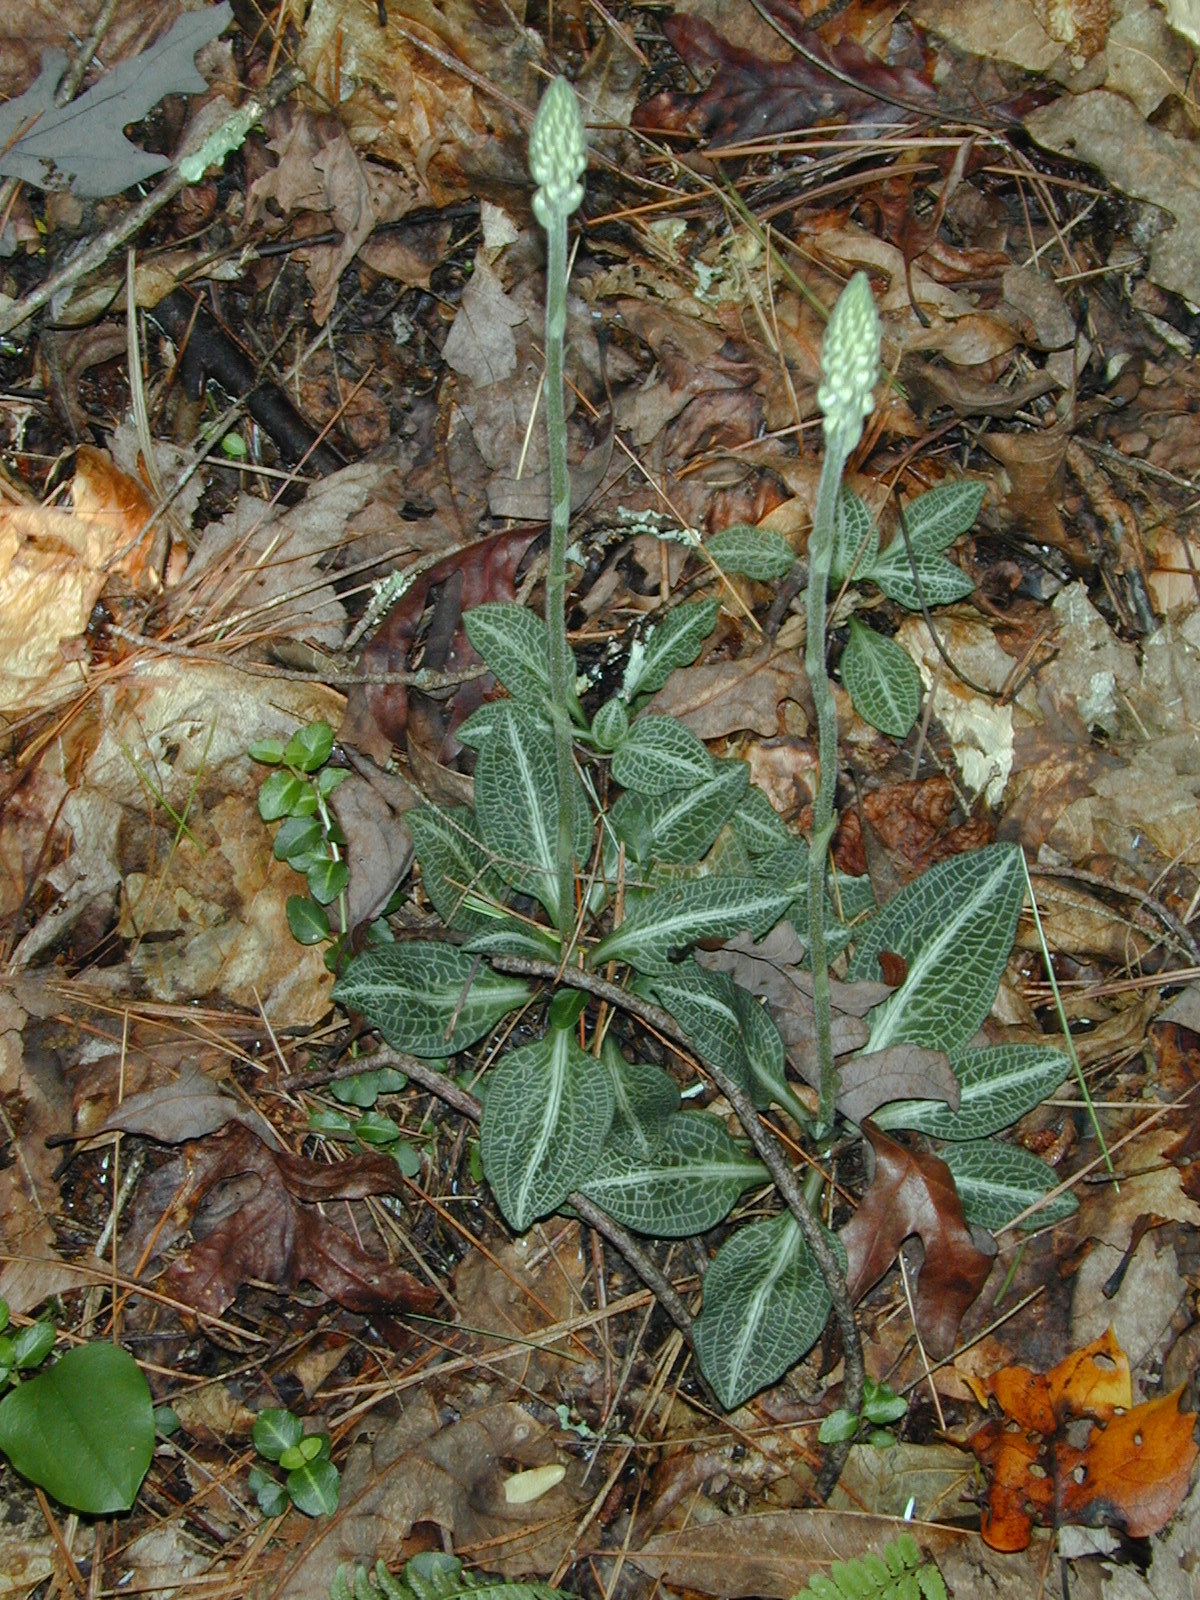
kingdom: Plantae
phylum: Tracheophyta
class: Liliopsida
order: Asparagales
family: Orchidaceae
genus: Goodyera
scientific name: Goodyera pubescens
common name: Downy rattlesnake-plantain
